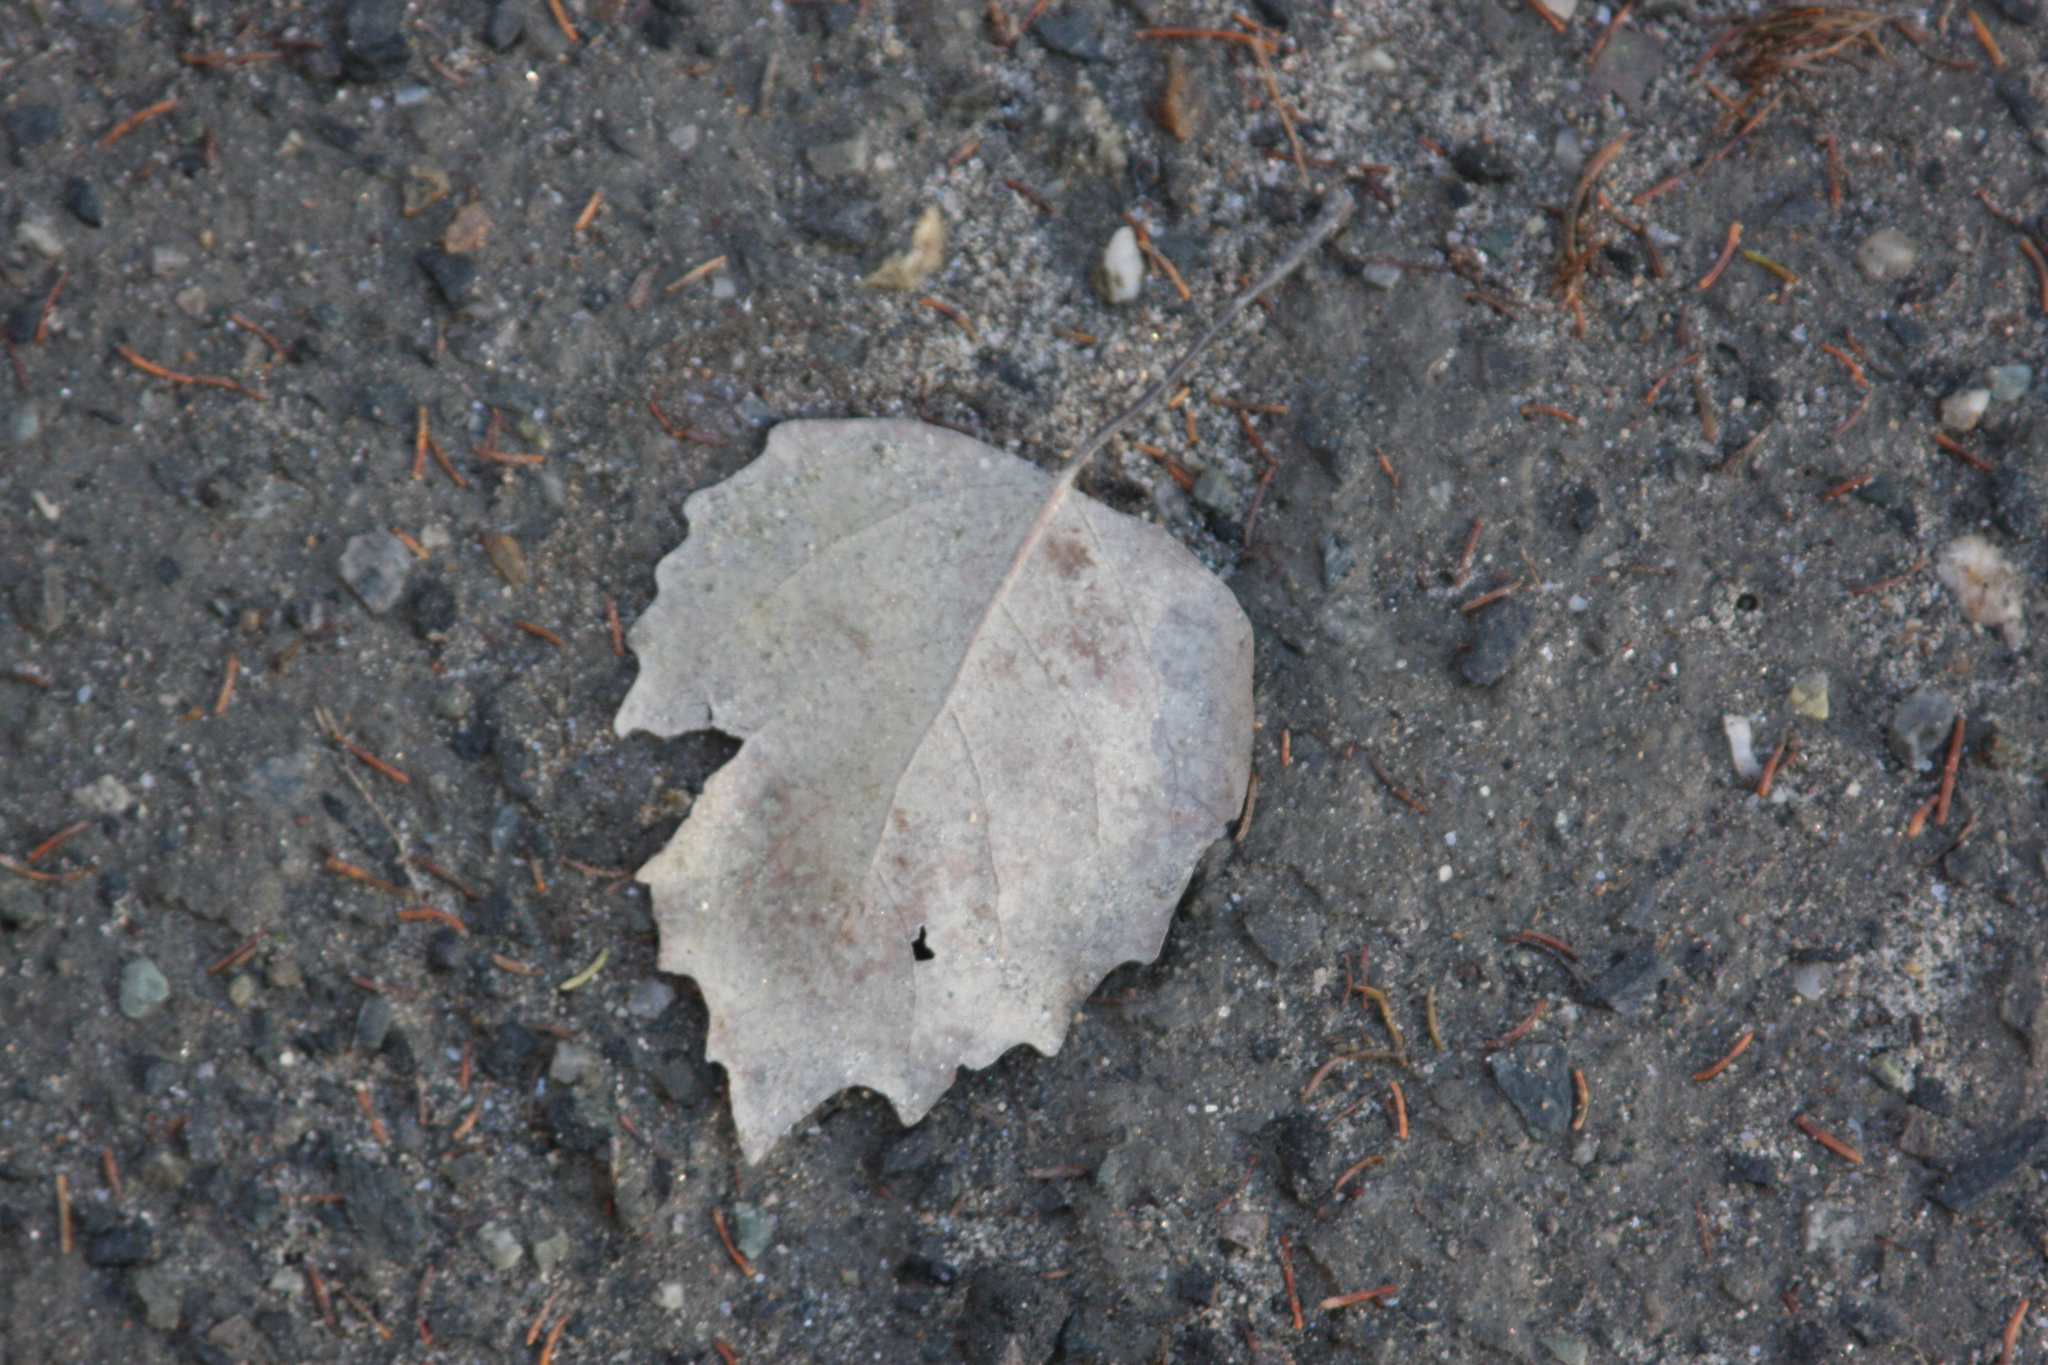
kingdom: Plantae
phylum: Tracheophyta
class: Magnoliopsida
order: Malpighiales
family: Salicaceae
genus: Populus
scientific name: Populus grandidentata
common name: Bigtooth aspen
